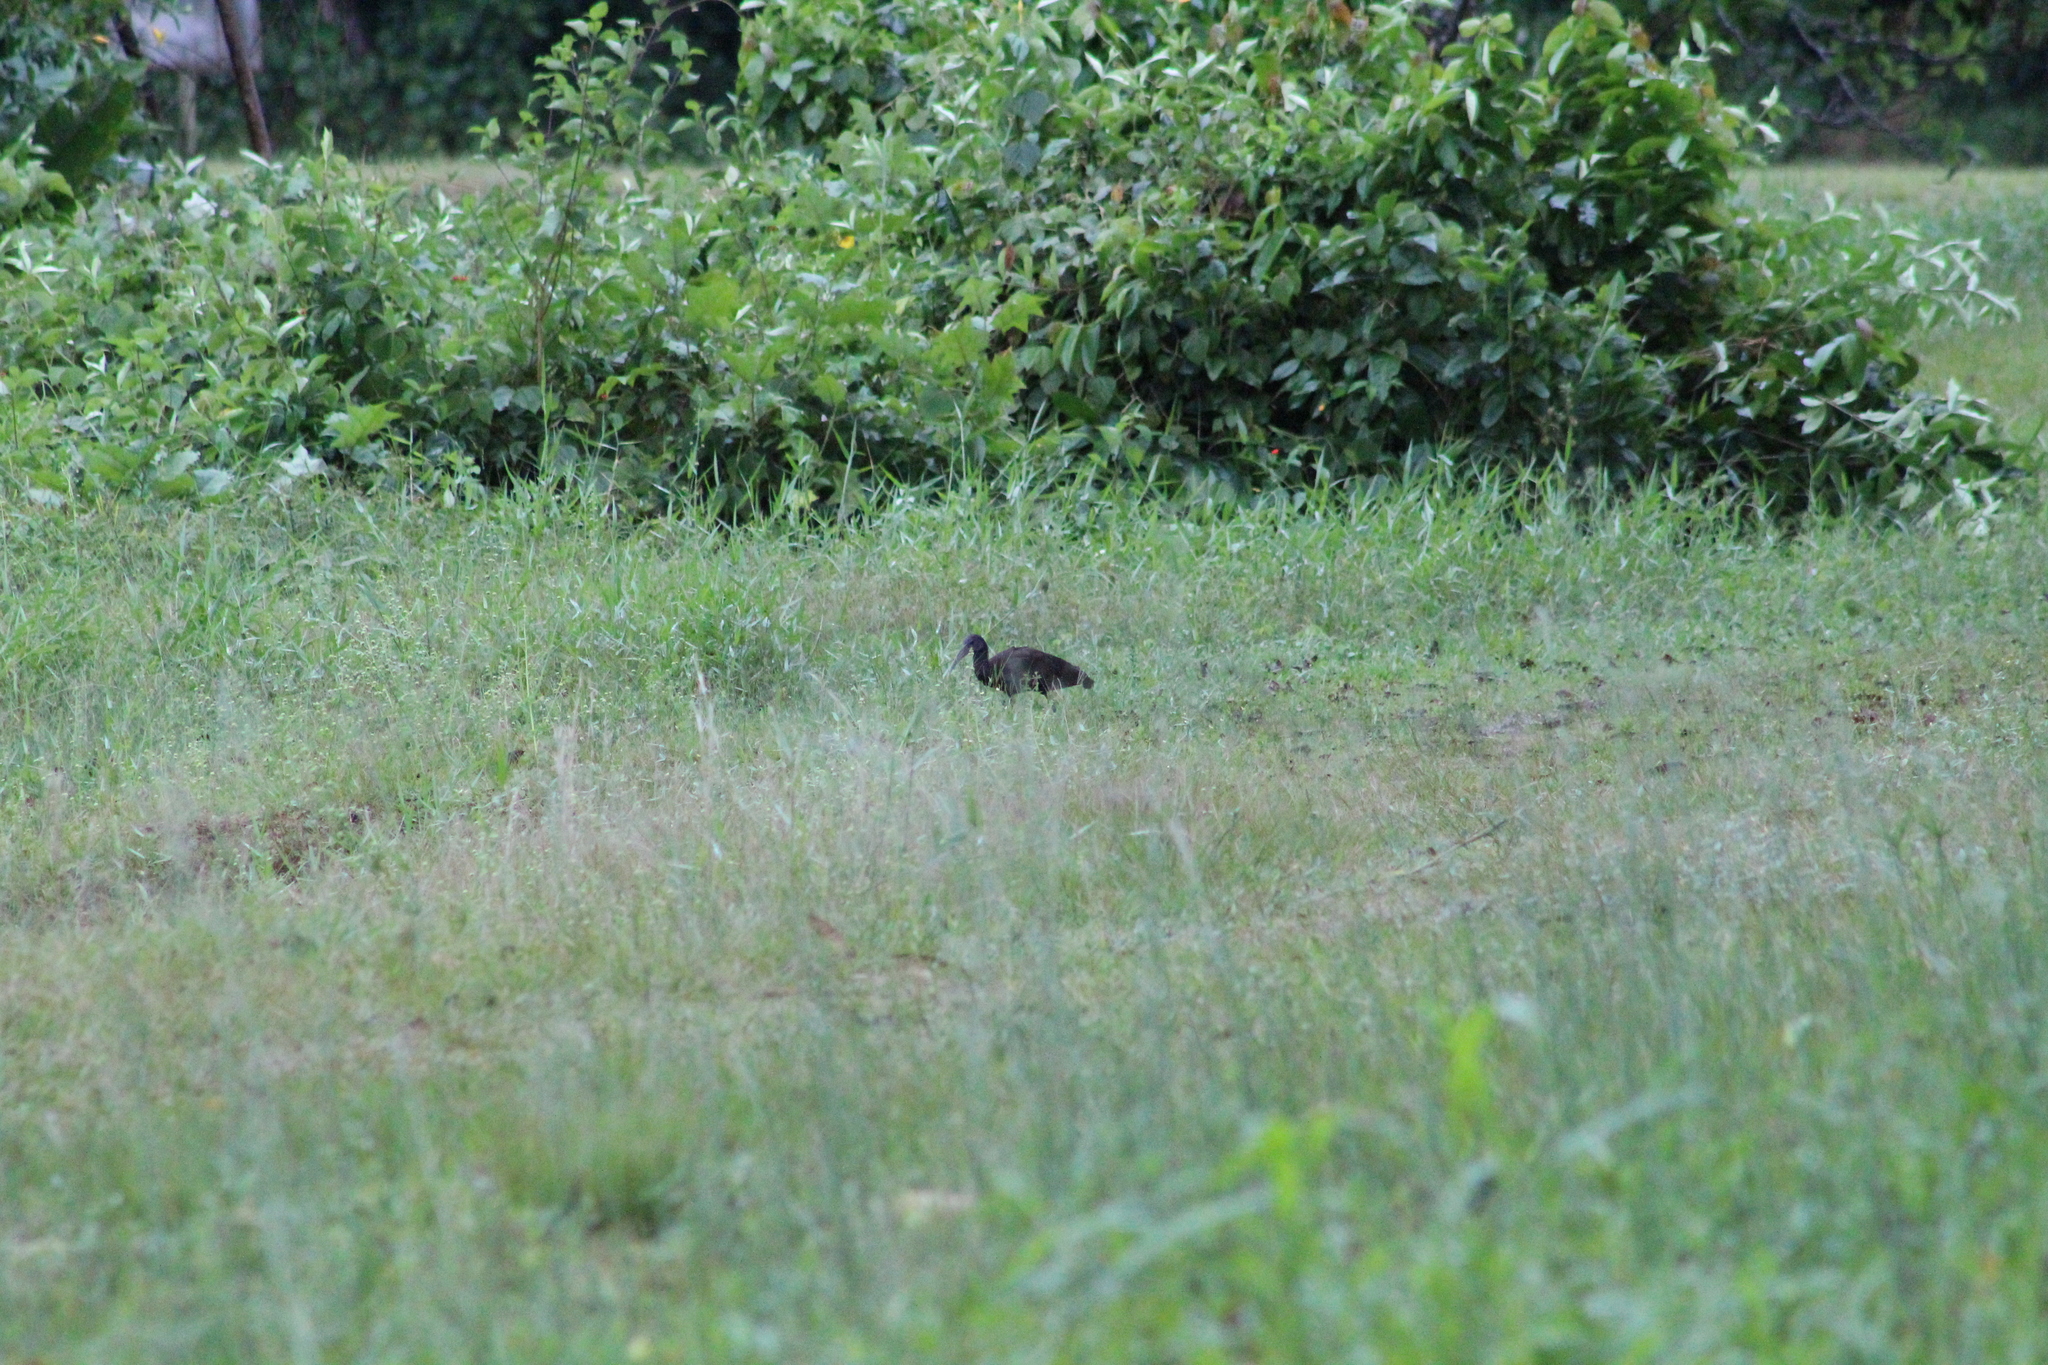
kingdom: Animalia
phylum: Chordata
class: Aves
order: Pelecaniformes
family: Threskiornithidae
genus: Mesembrinibis
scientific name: Mesembrinibis cayennensis
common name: Green ibis
